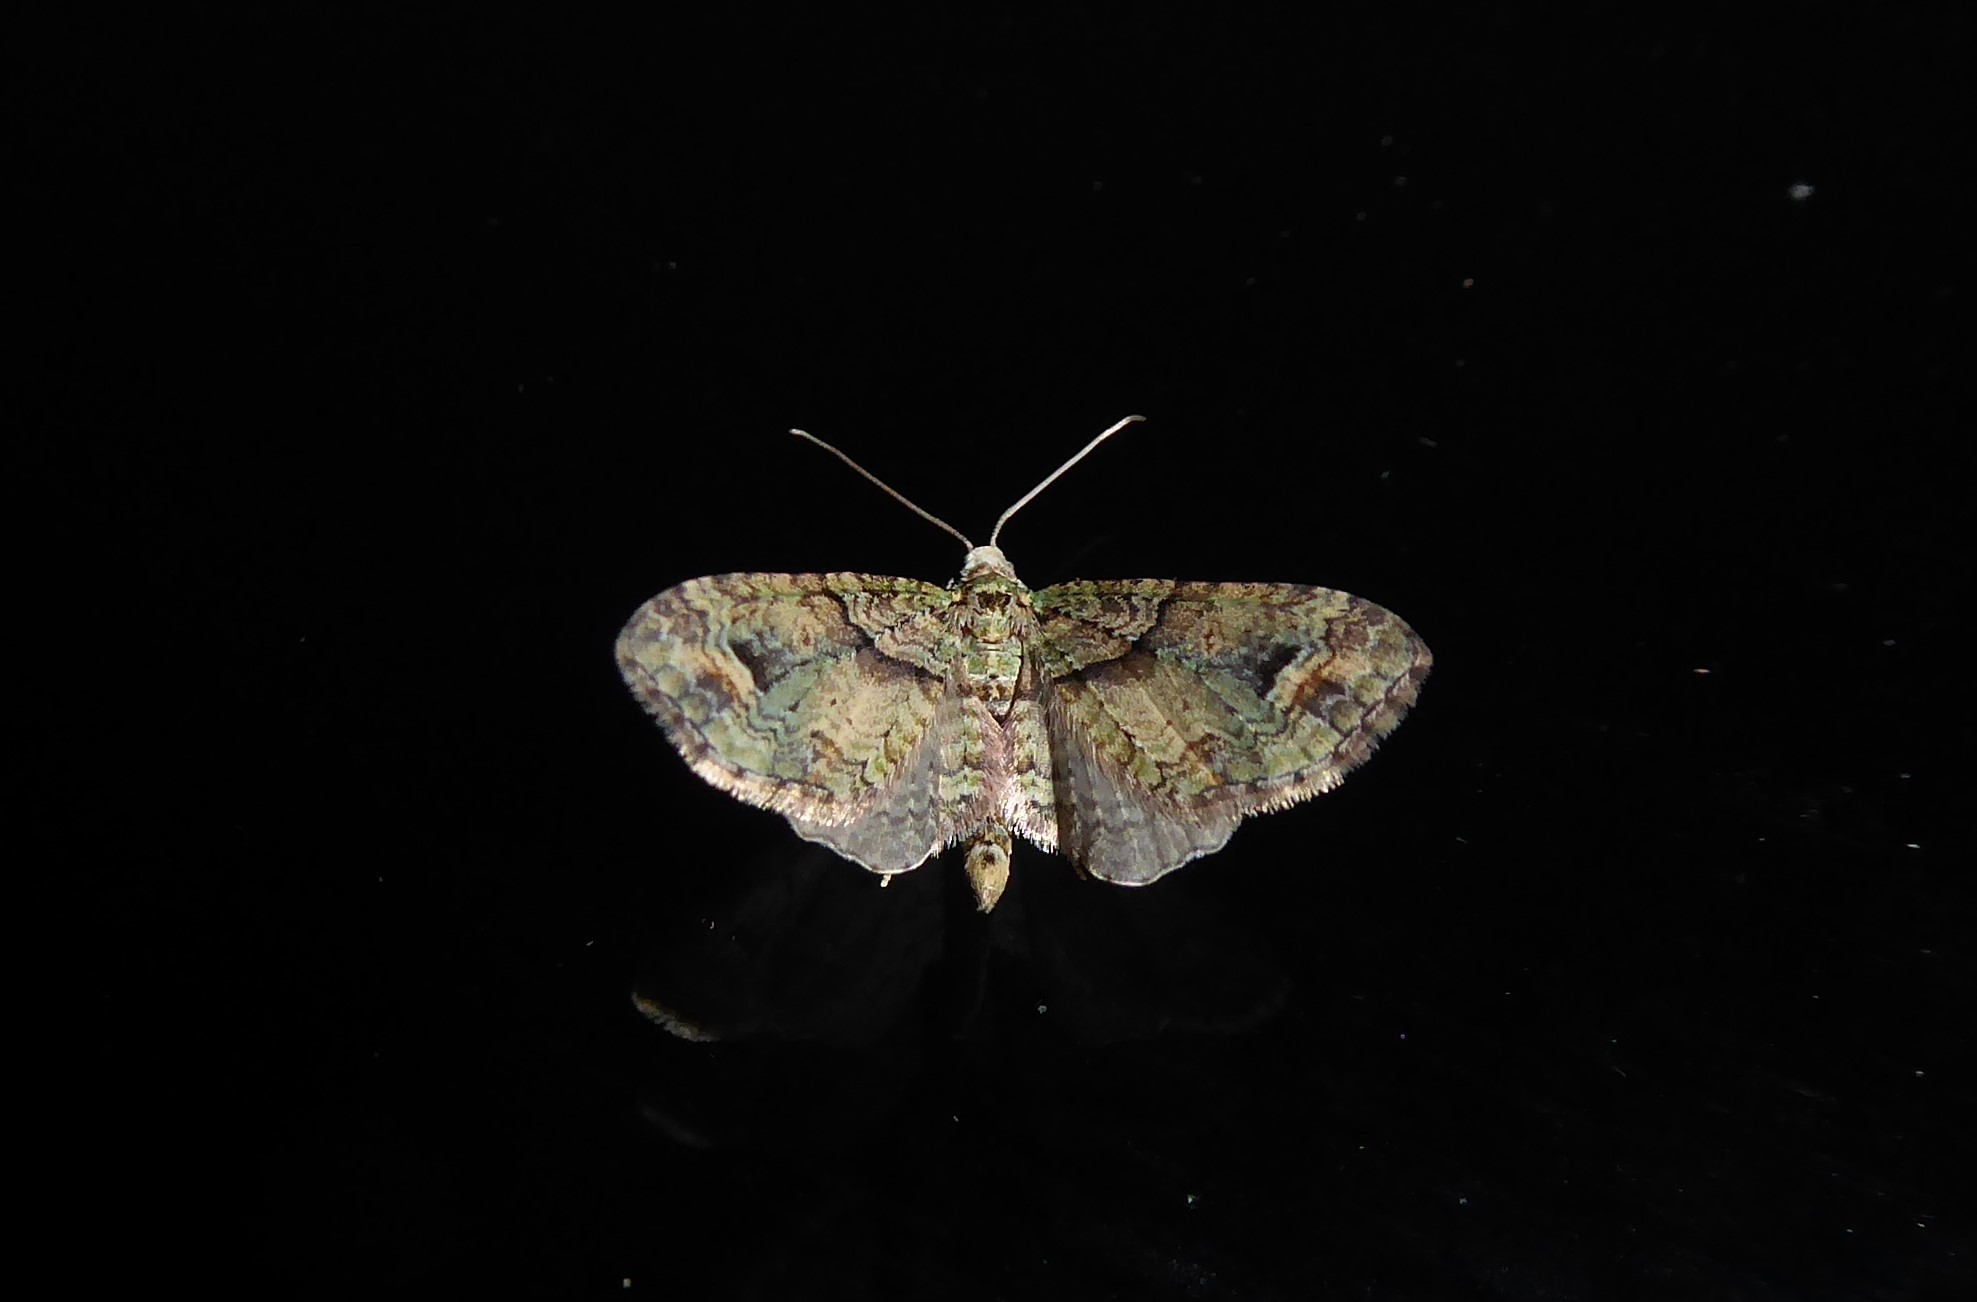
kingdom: Animalia
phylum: Arthropoda
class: Insecta
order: Lepidoptera
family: Geometridae
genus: Idaea
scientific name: Idaea mutanda
